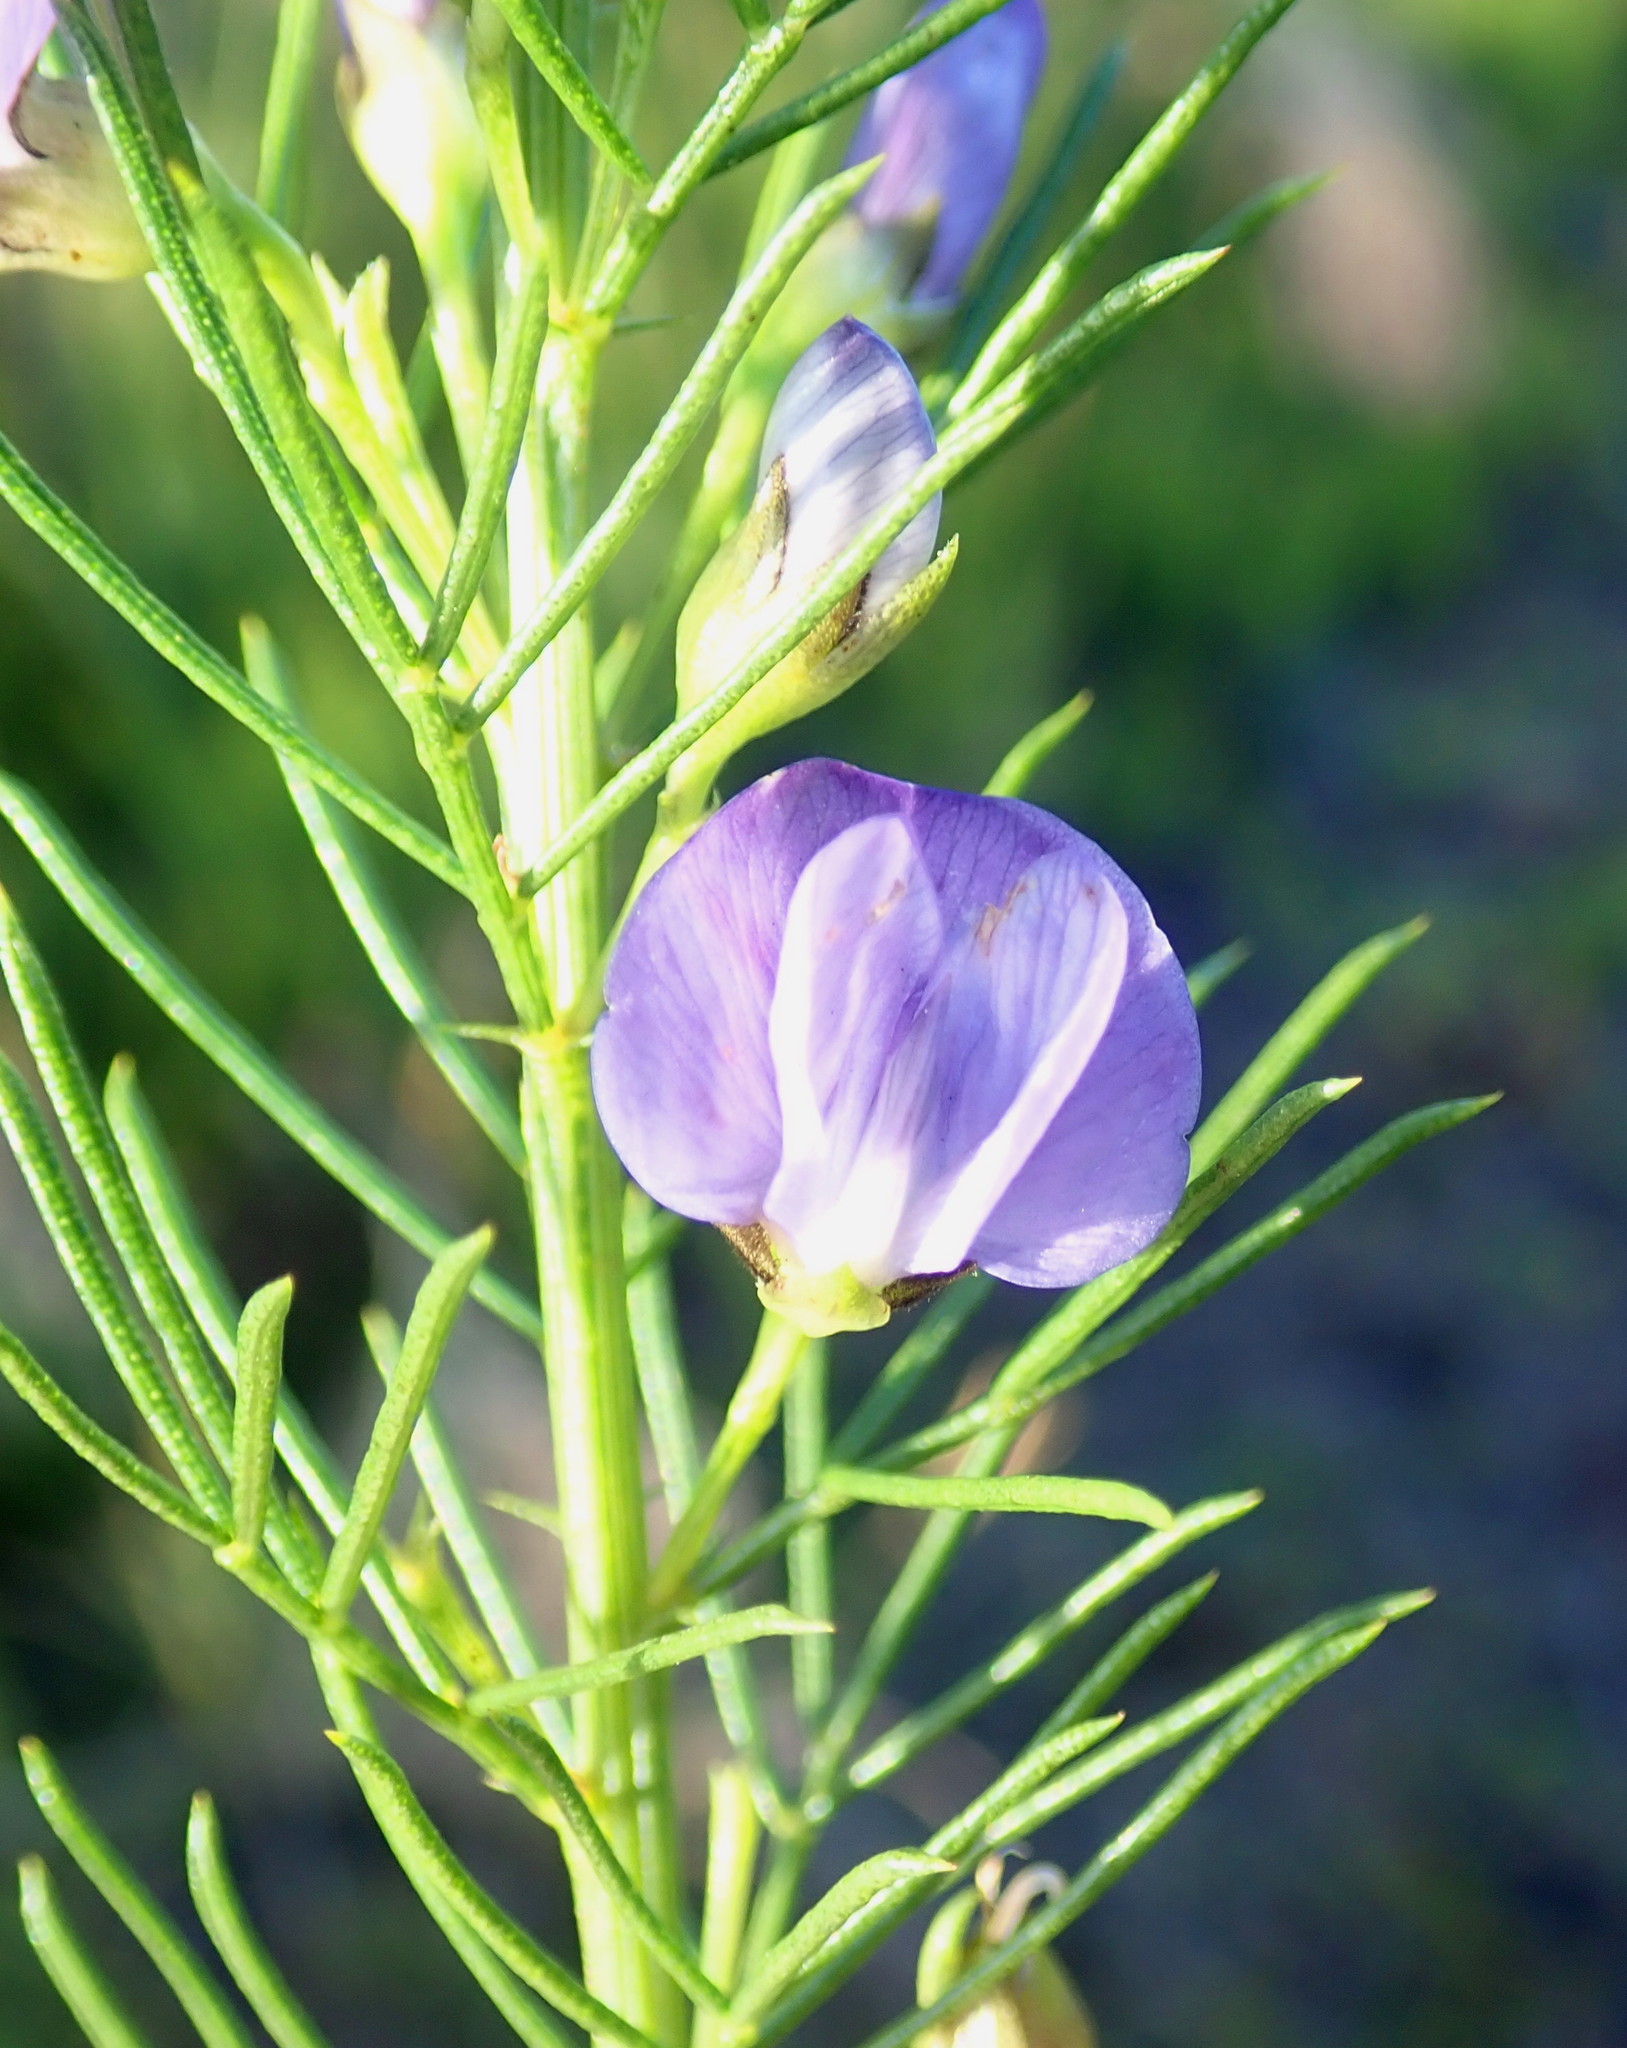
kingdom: Plantae
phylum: Tracheophyta
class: Magnoliopsida
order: Fabales
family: Fabaceae
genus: Psoralea
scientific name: Psoralea azuroides
